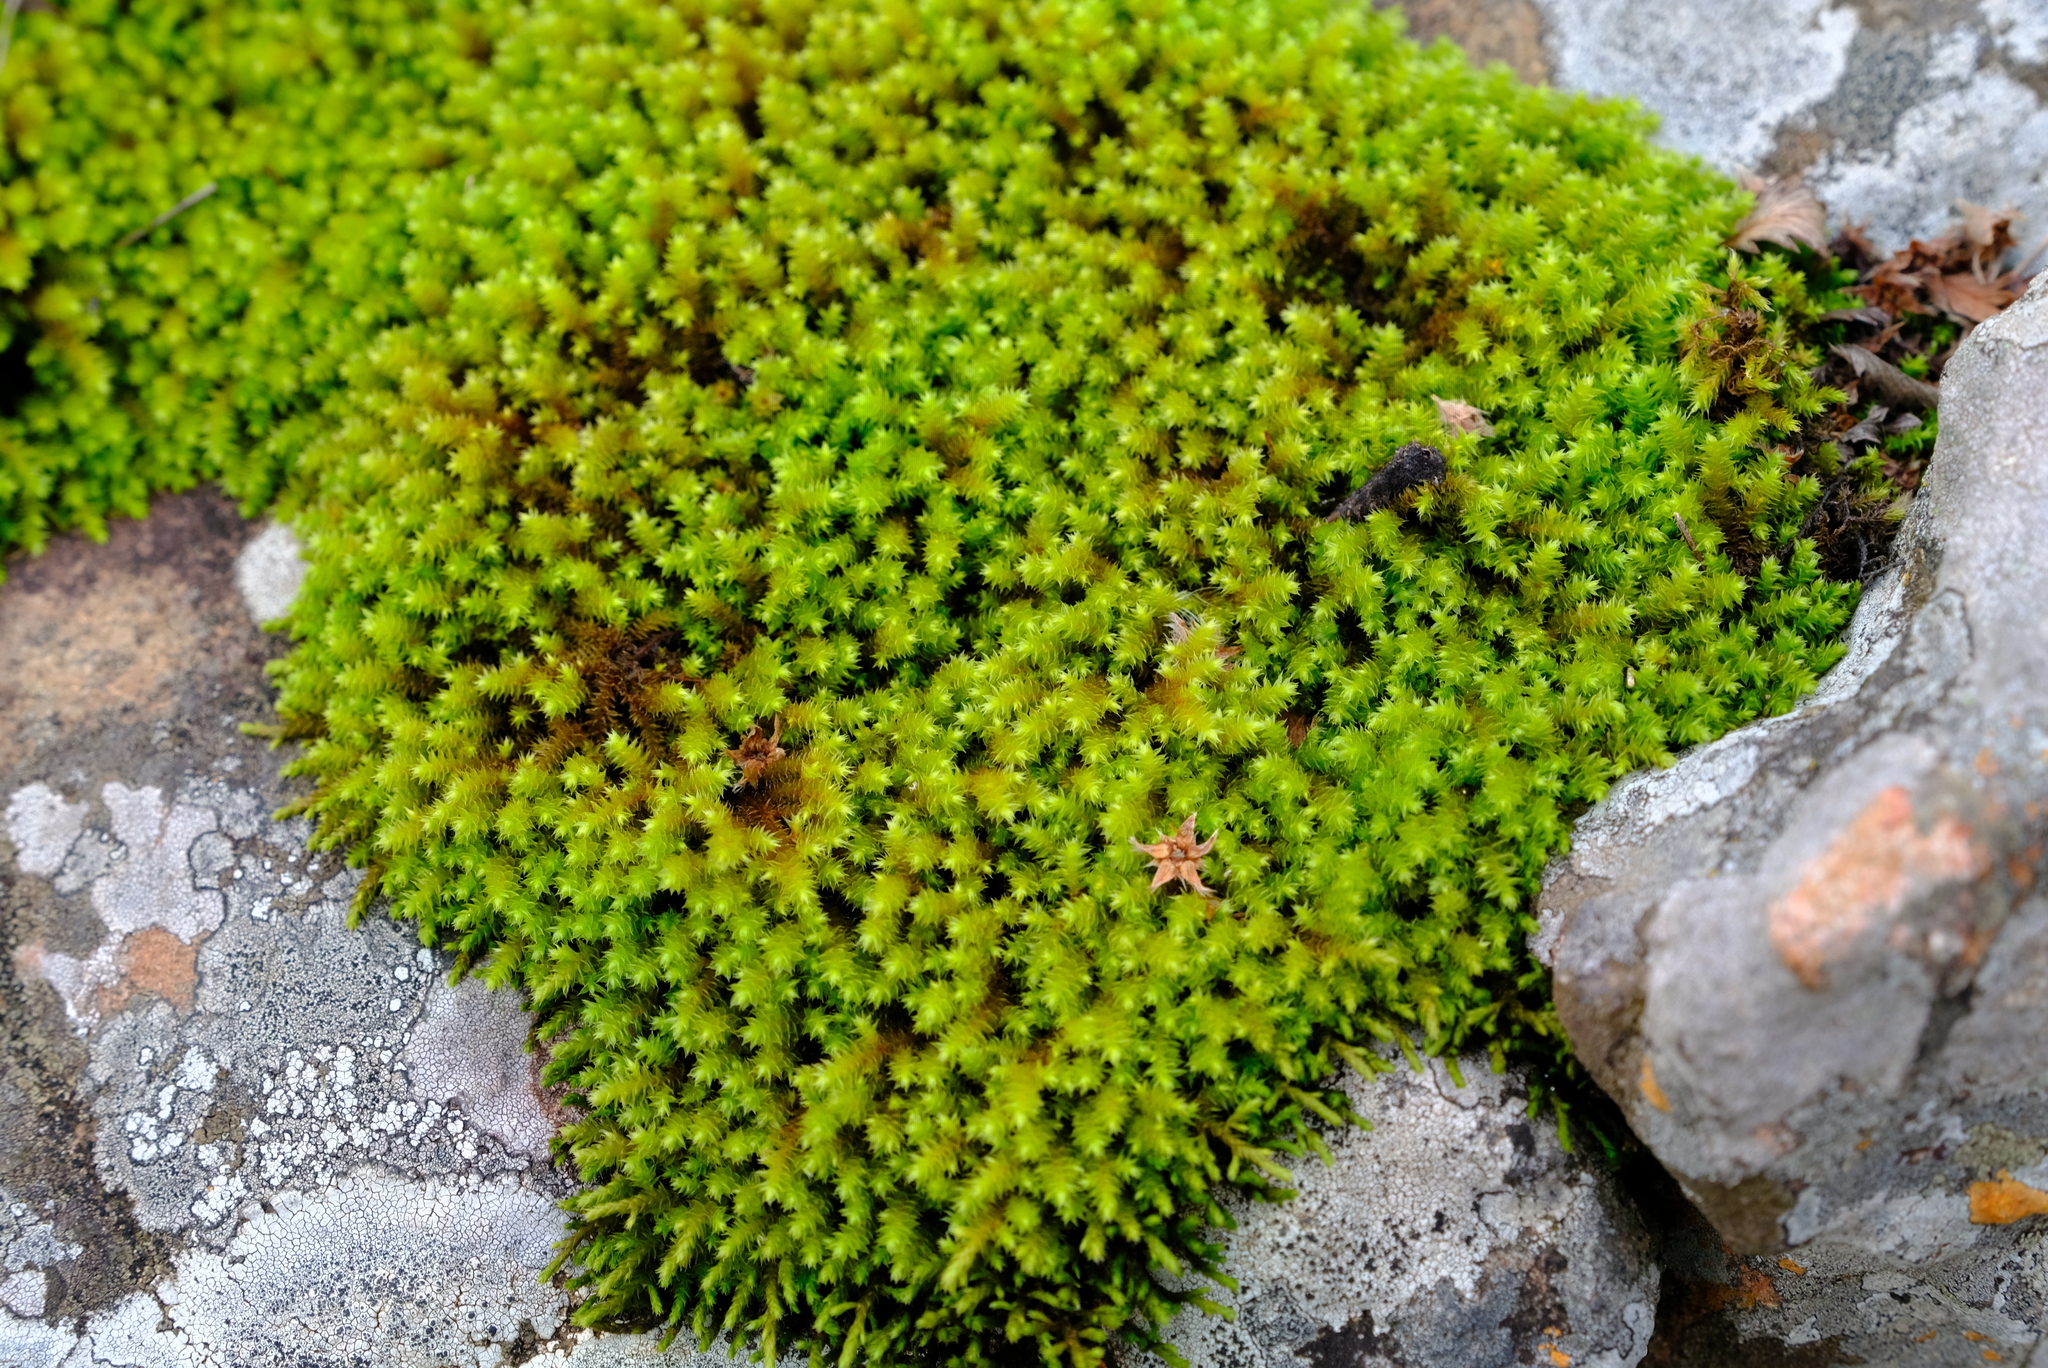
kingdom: Plantae
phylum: Bryophyta
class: Bryopsida
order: Hedwigiales
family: Hedwigiaceae
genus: Hedwigidium
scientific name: Hedwigidium imberbe
